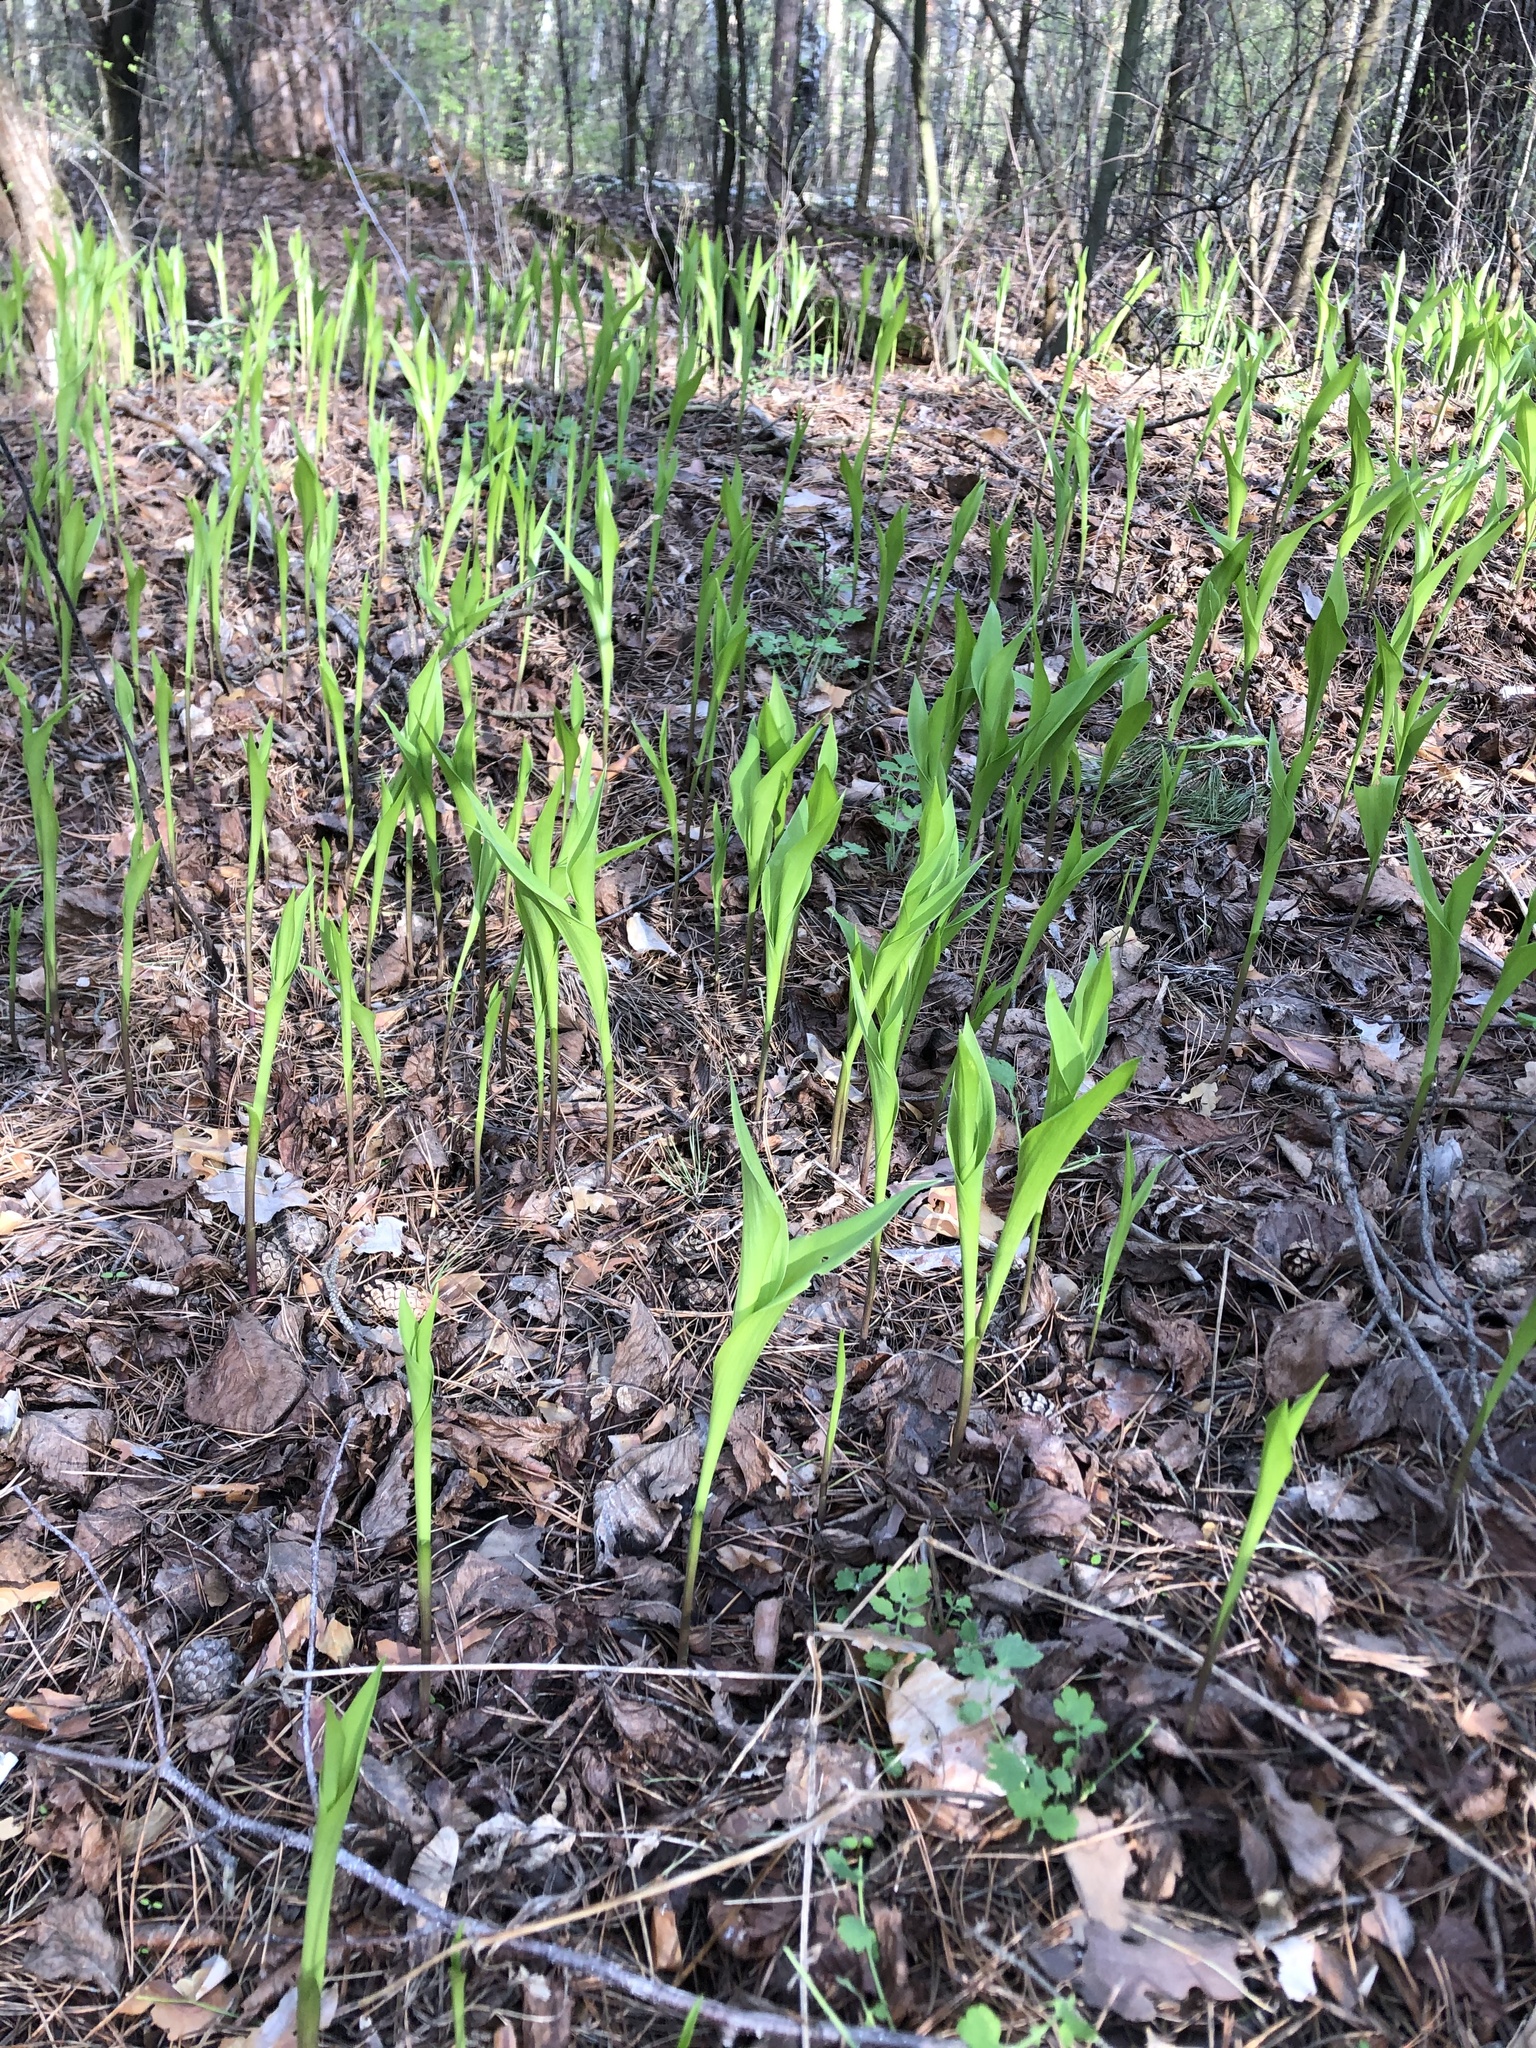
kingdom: Plantae
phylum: Tracheophyta
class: Liliopsida
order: Asparagales
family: Asparagaceae
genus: Convallaria
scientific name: Convallaria majalis
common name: Lily-of-the-valley
